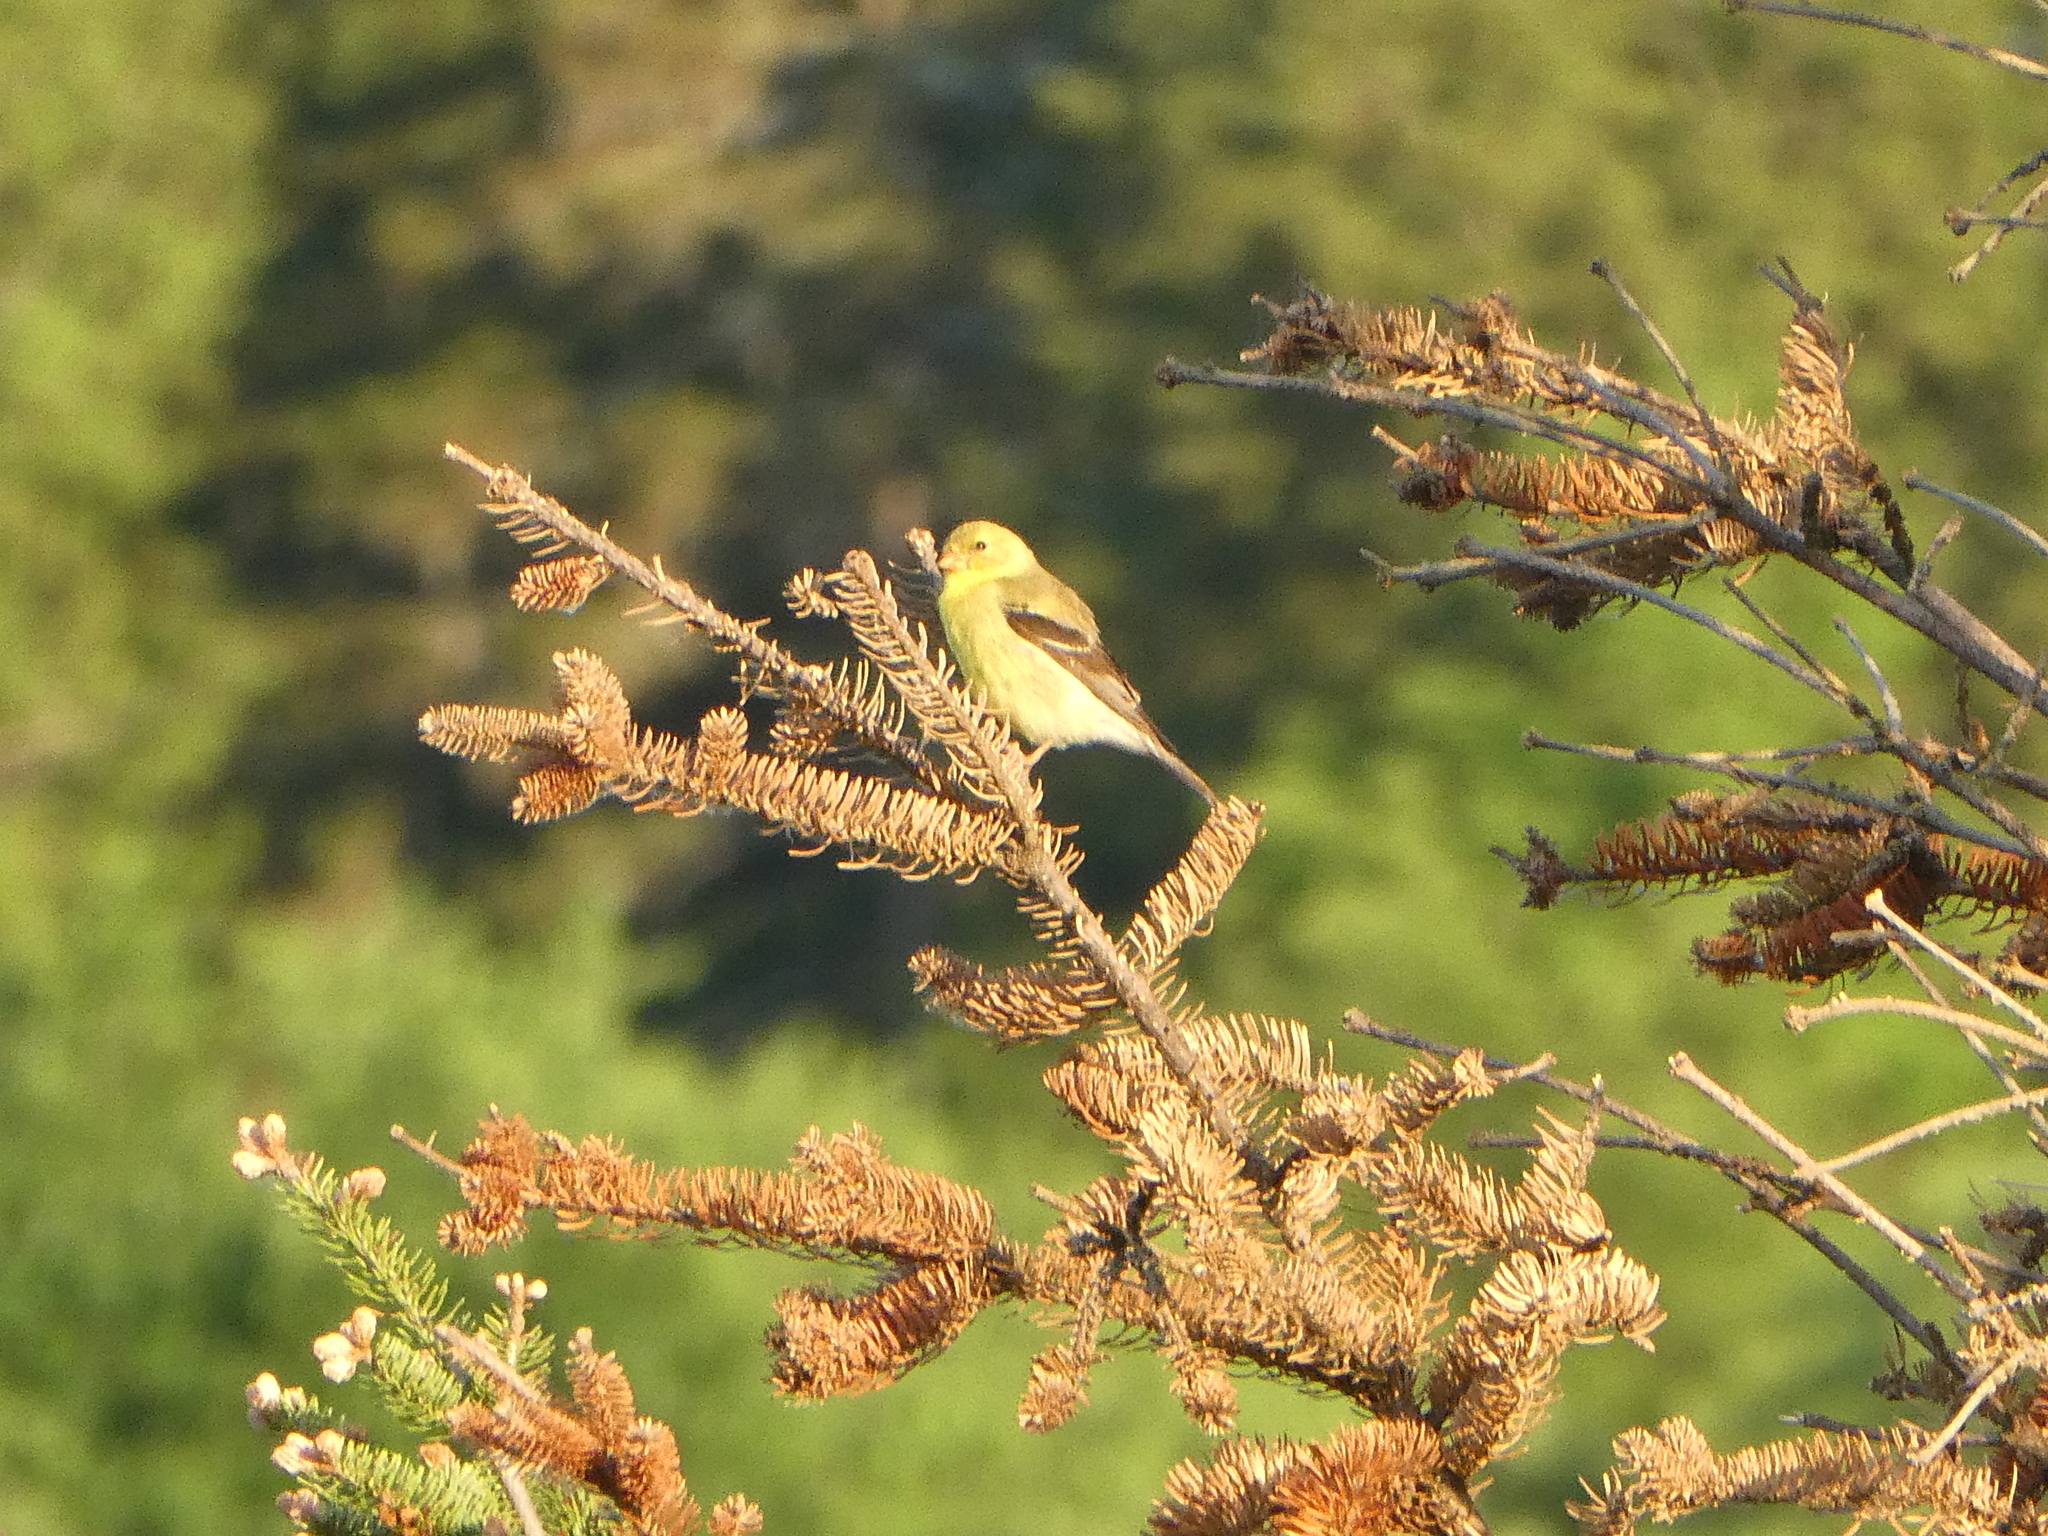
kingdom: Animalia
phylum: Chordata
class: Aves
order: Passeriformes
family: Fringillidae
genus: Spinus
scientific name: Spinus tristis
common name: American goldfinch
